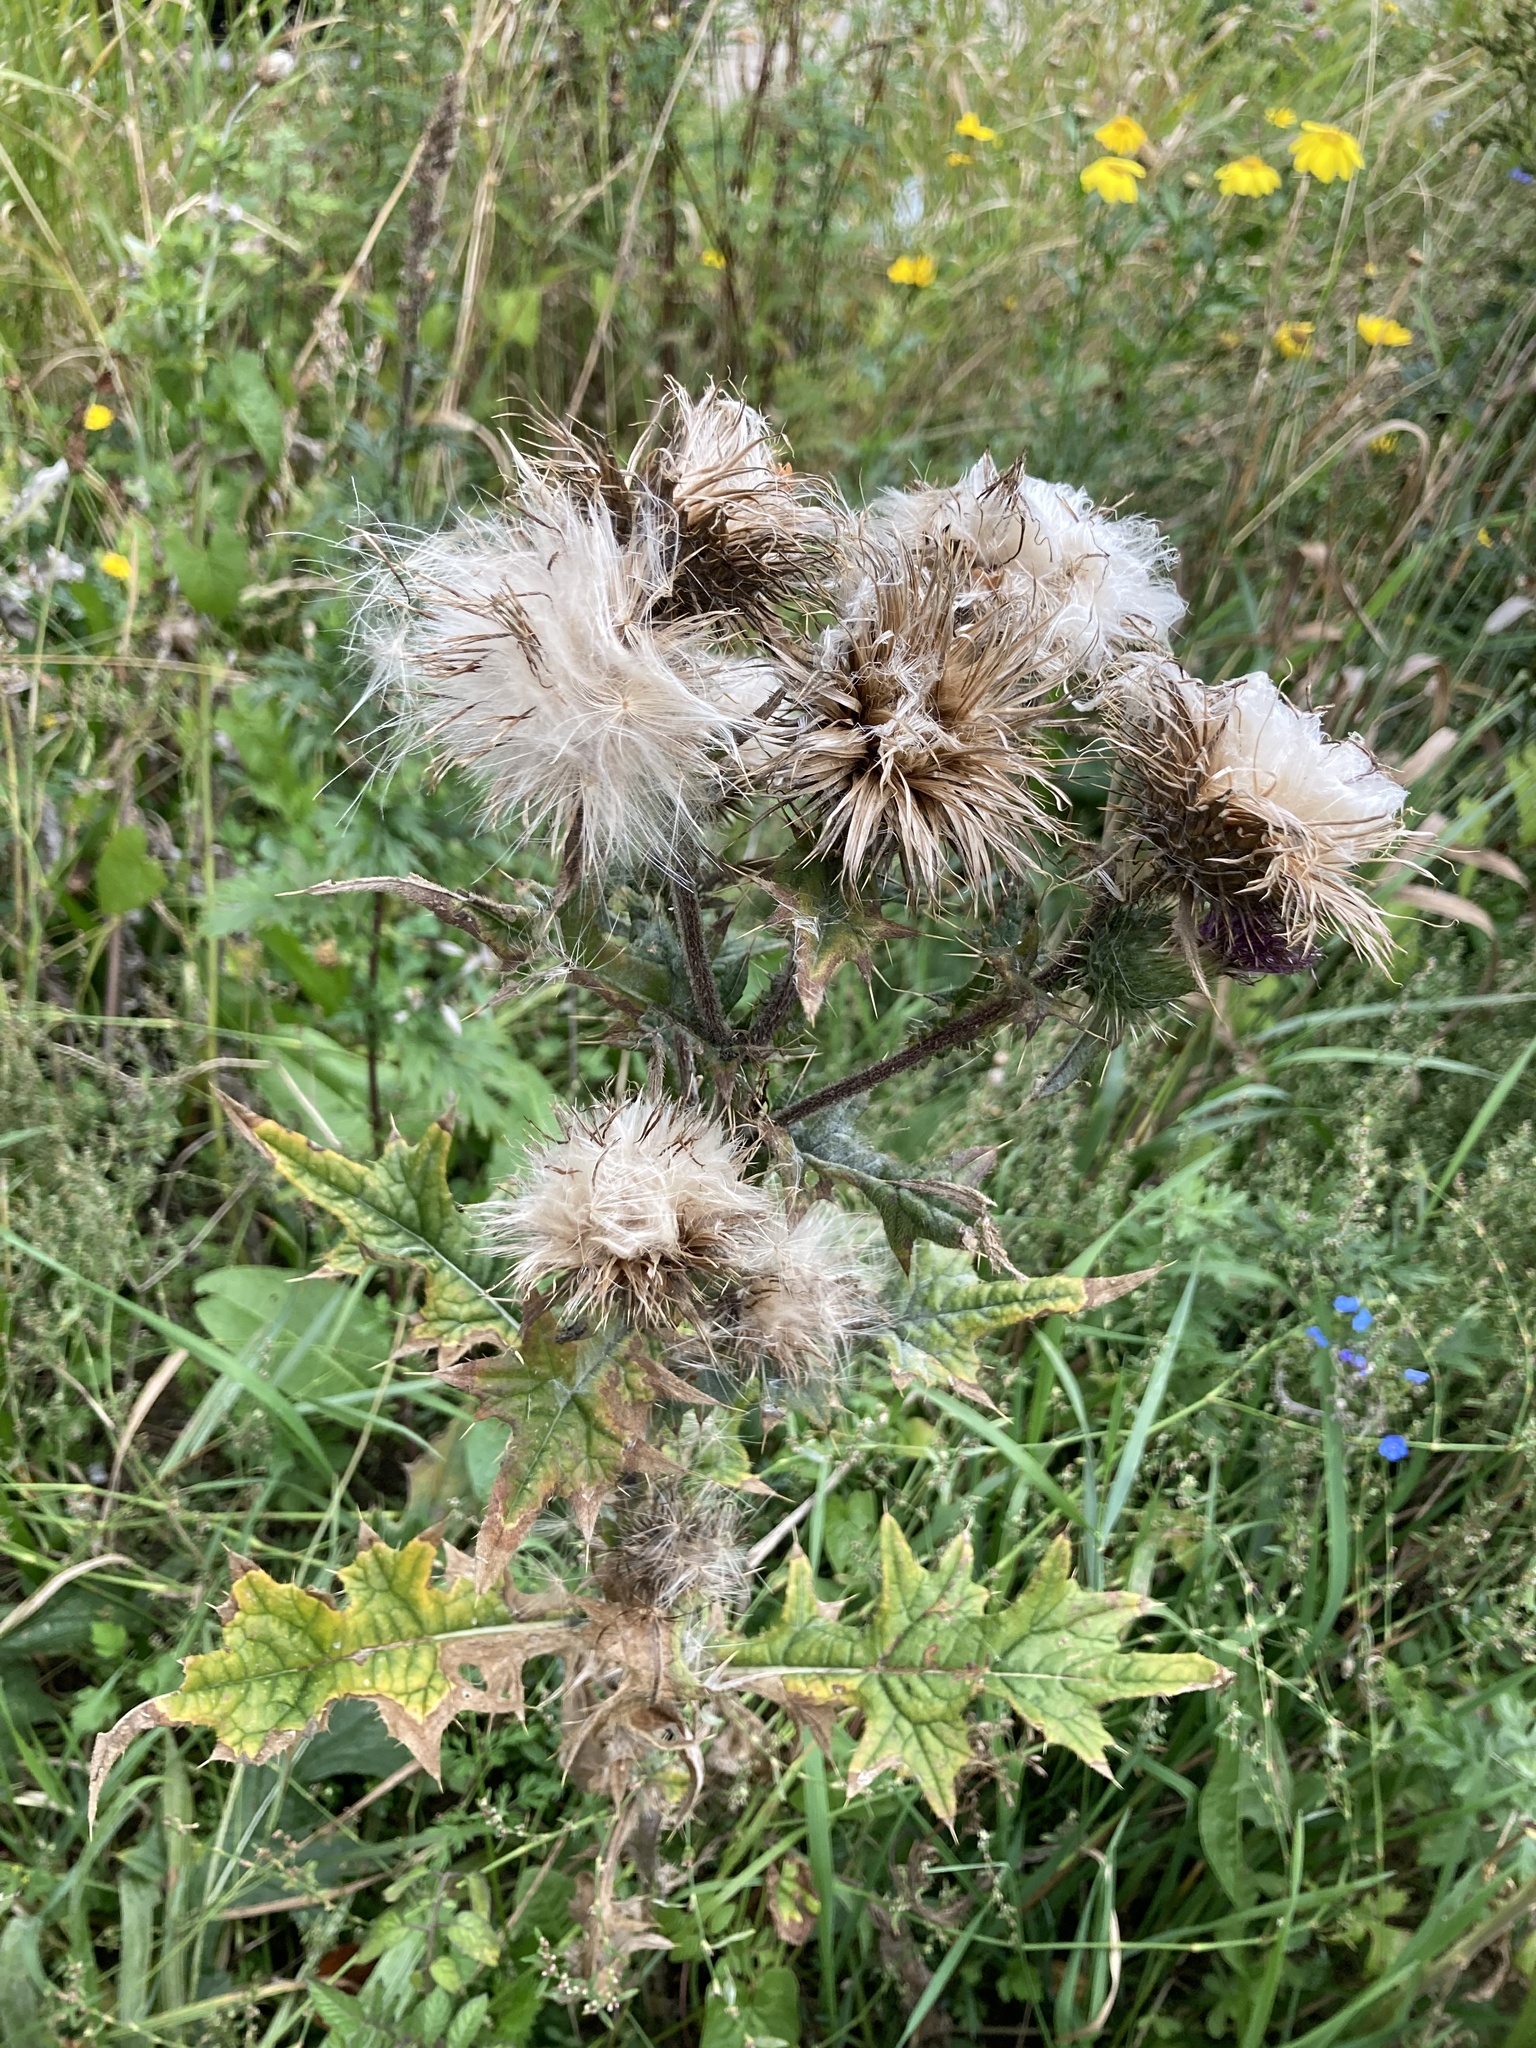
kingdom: Plantae
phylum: Tracheophyta
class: Magnoliopsida
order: Asterales
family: Asteraceae
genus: Cirsium
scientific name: Cirsium vulgare
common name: Bull thistle
